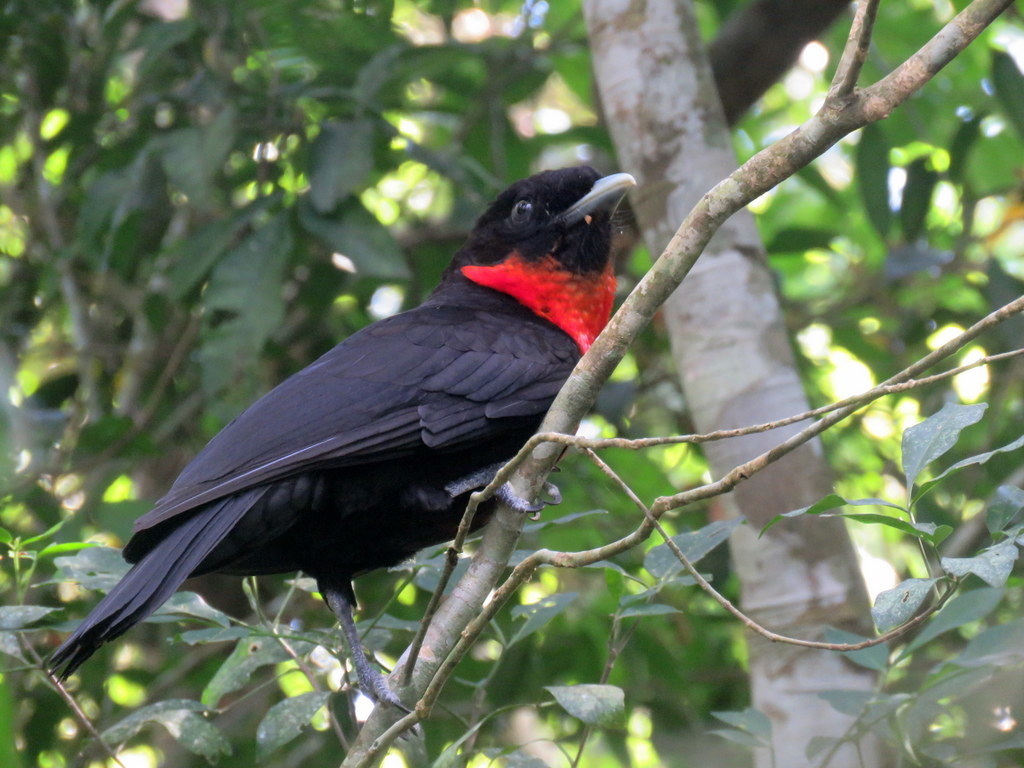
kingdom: Animalia
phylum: Chordata
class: Aves
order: Passeriformes
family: Cotingidae
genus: Pyroderus
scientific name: Pyroderus scutatus
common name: Red-ruffed fruitcrow
